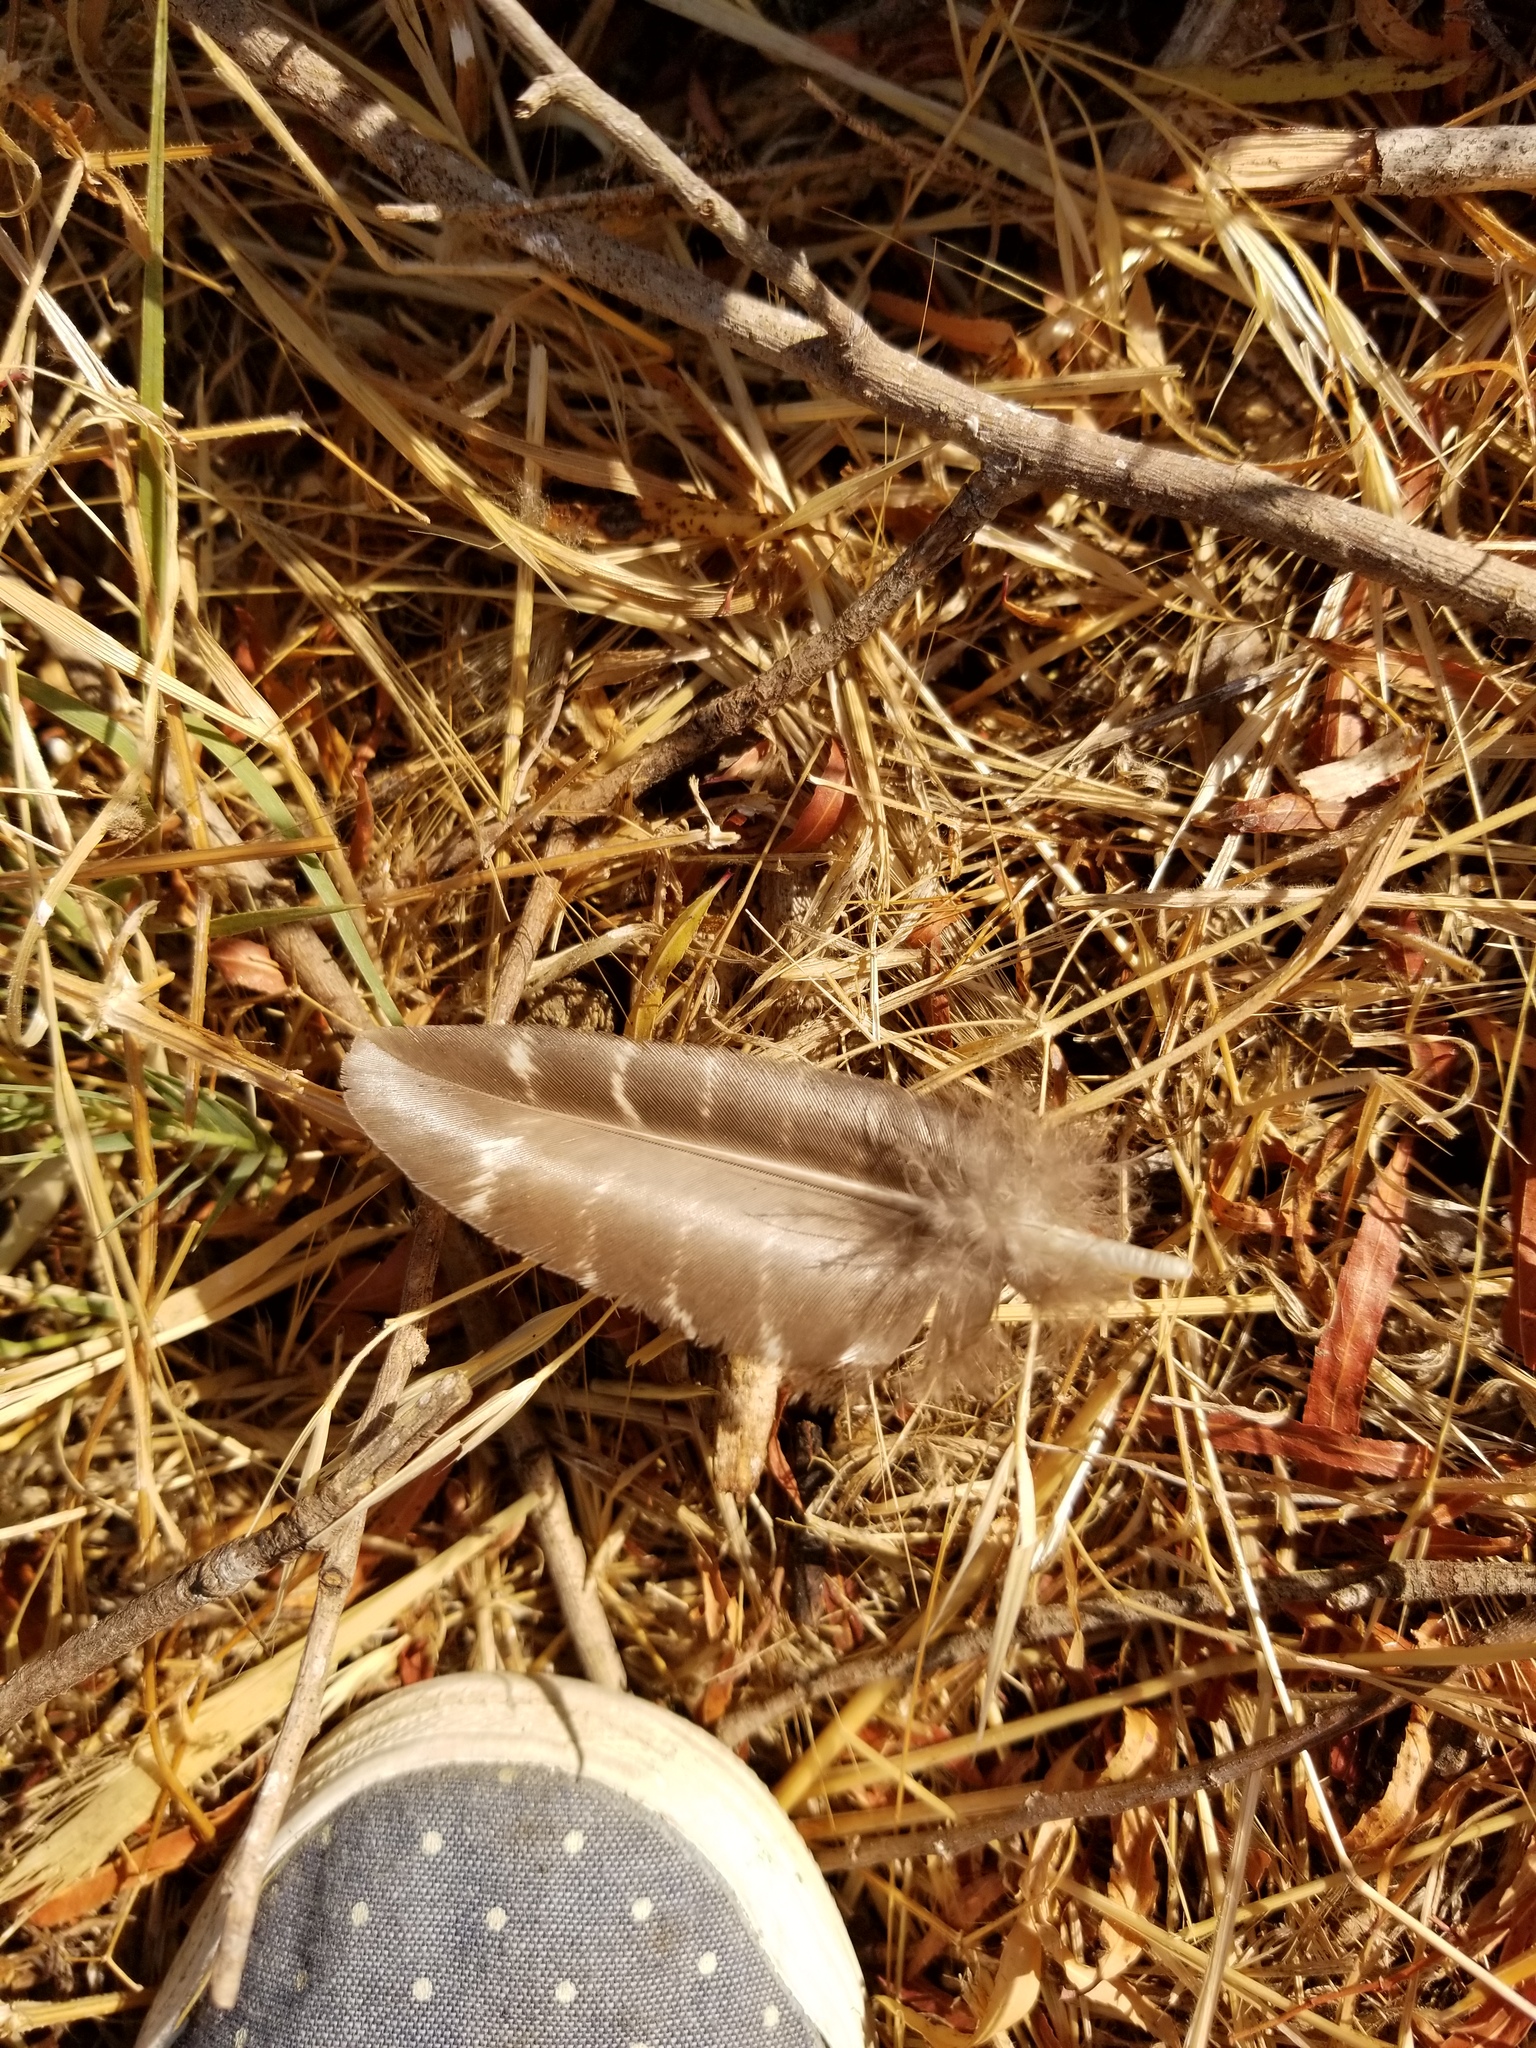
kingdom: Animalia
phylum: Chordata
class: Aves
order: Galliformes
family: Phasianidae
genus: Meleagris
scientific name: Meleagris gallopavo
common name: Wild turkey
